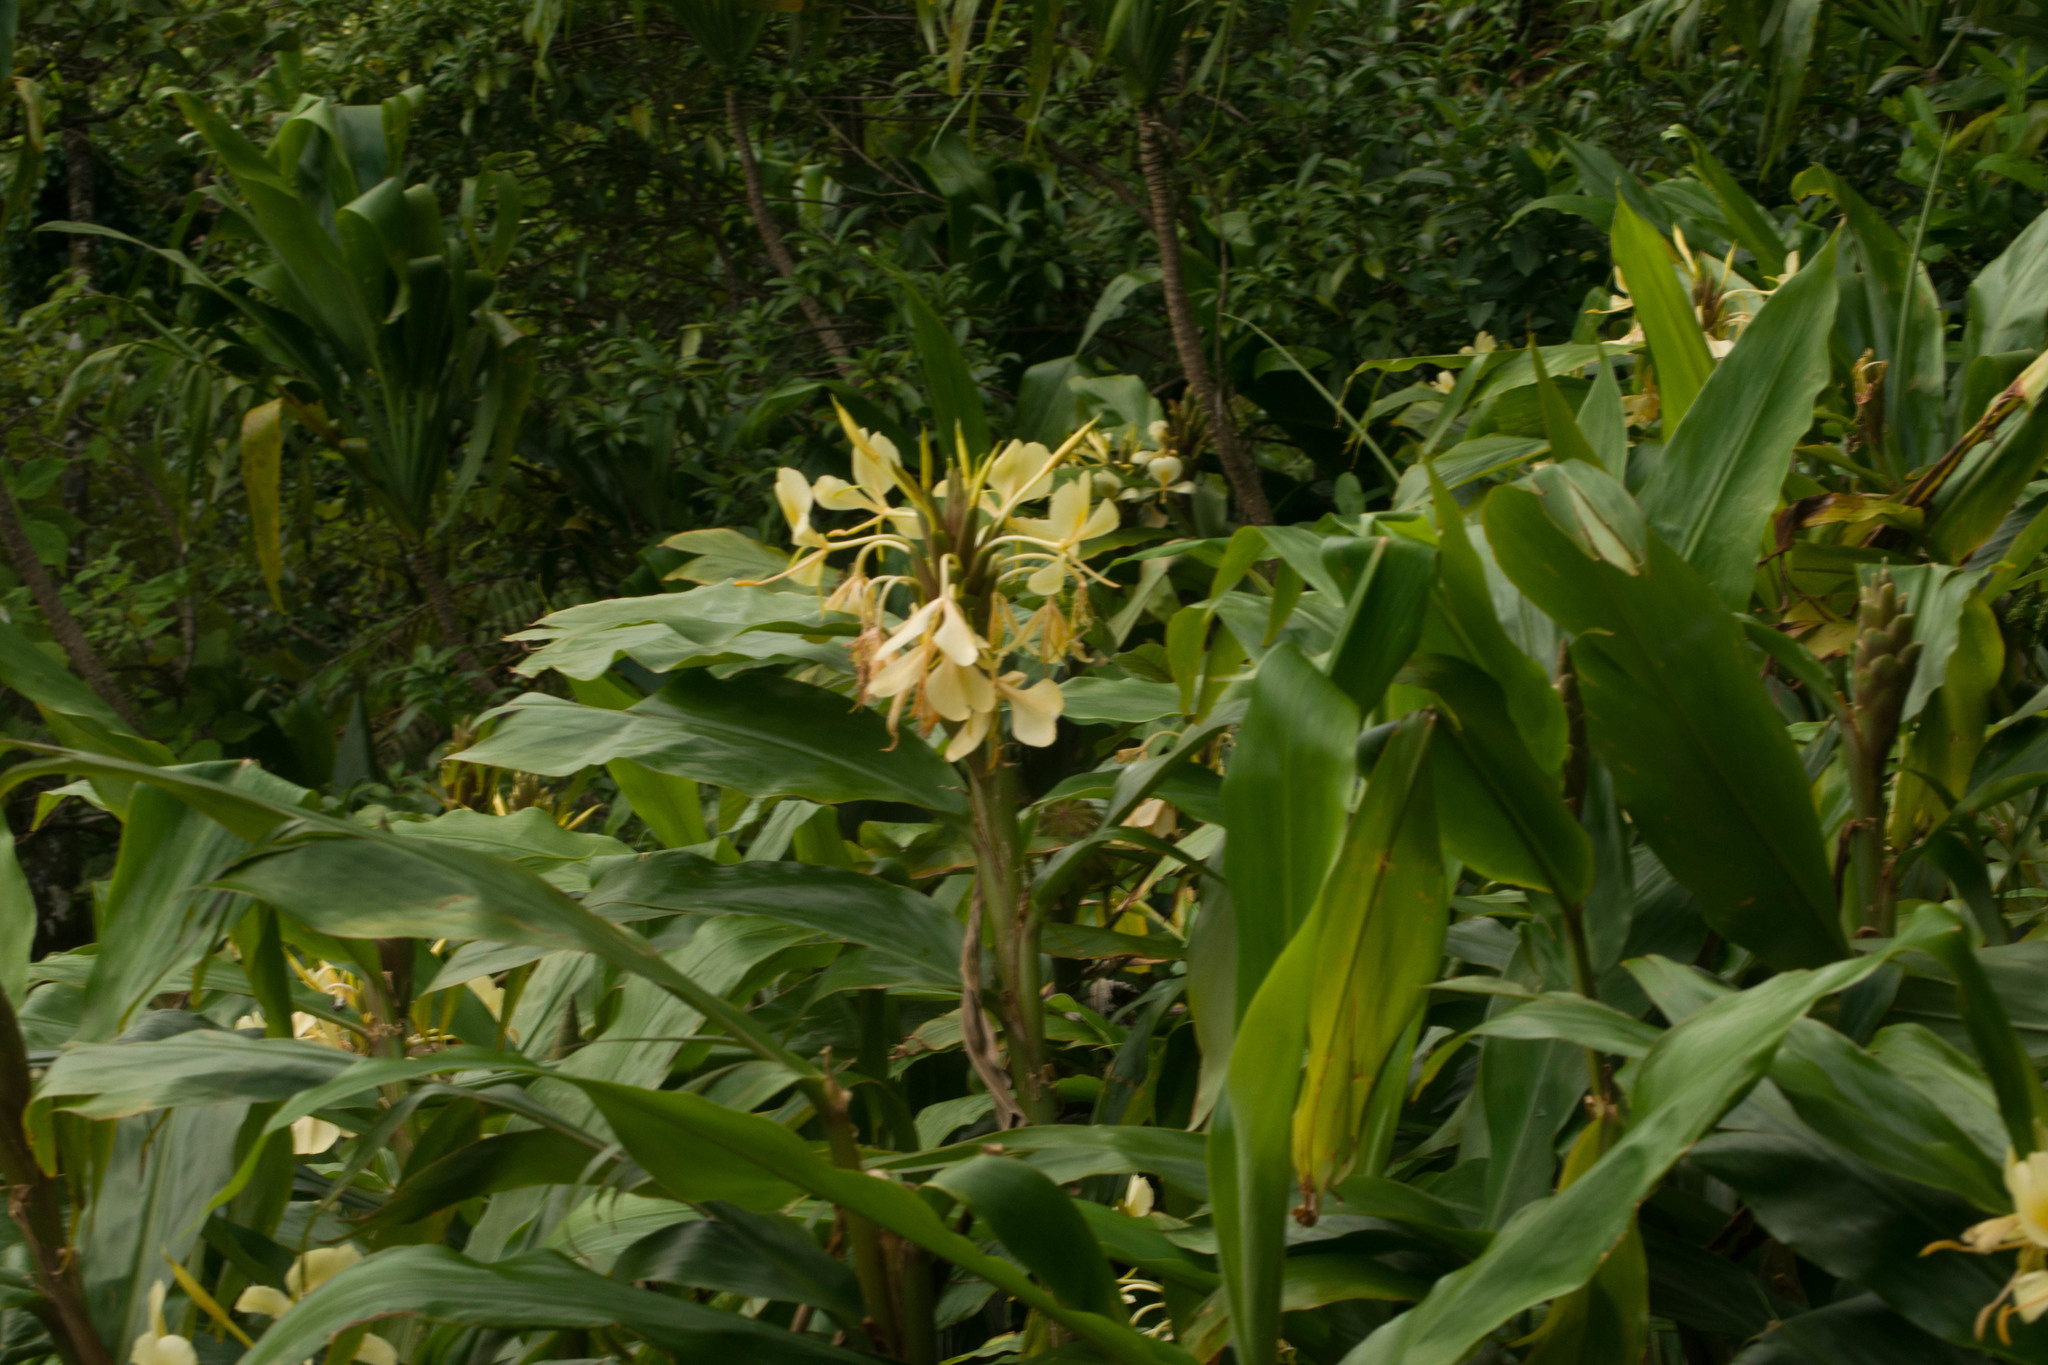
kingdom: Plantae
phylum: Tracheophyta
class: Liliopsida
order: Zingiberales
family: Zingiberaceae
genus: Hedychium
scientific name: Hedychium flavescens
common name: Yellow ginger
